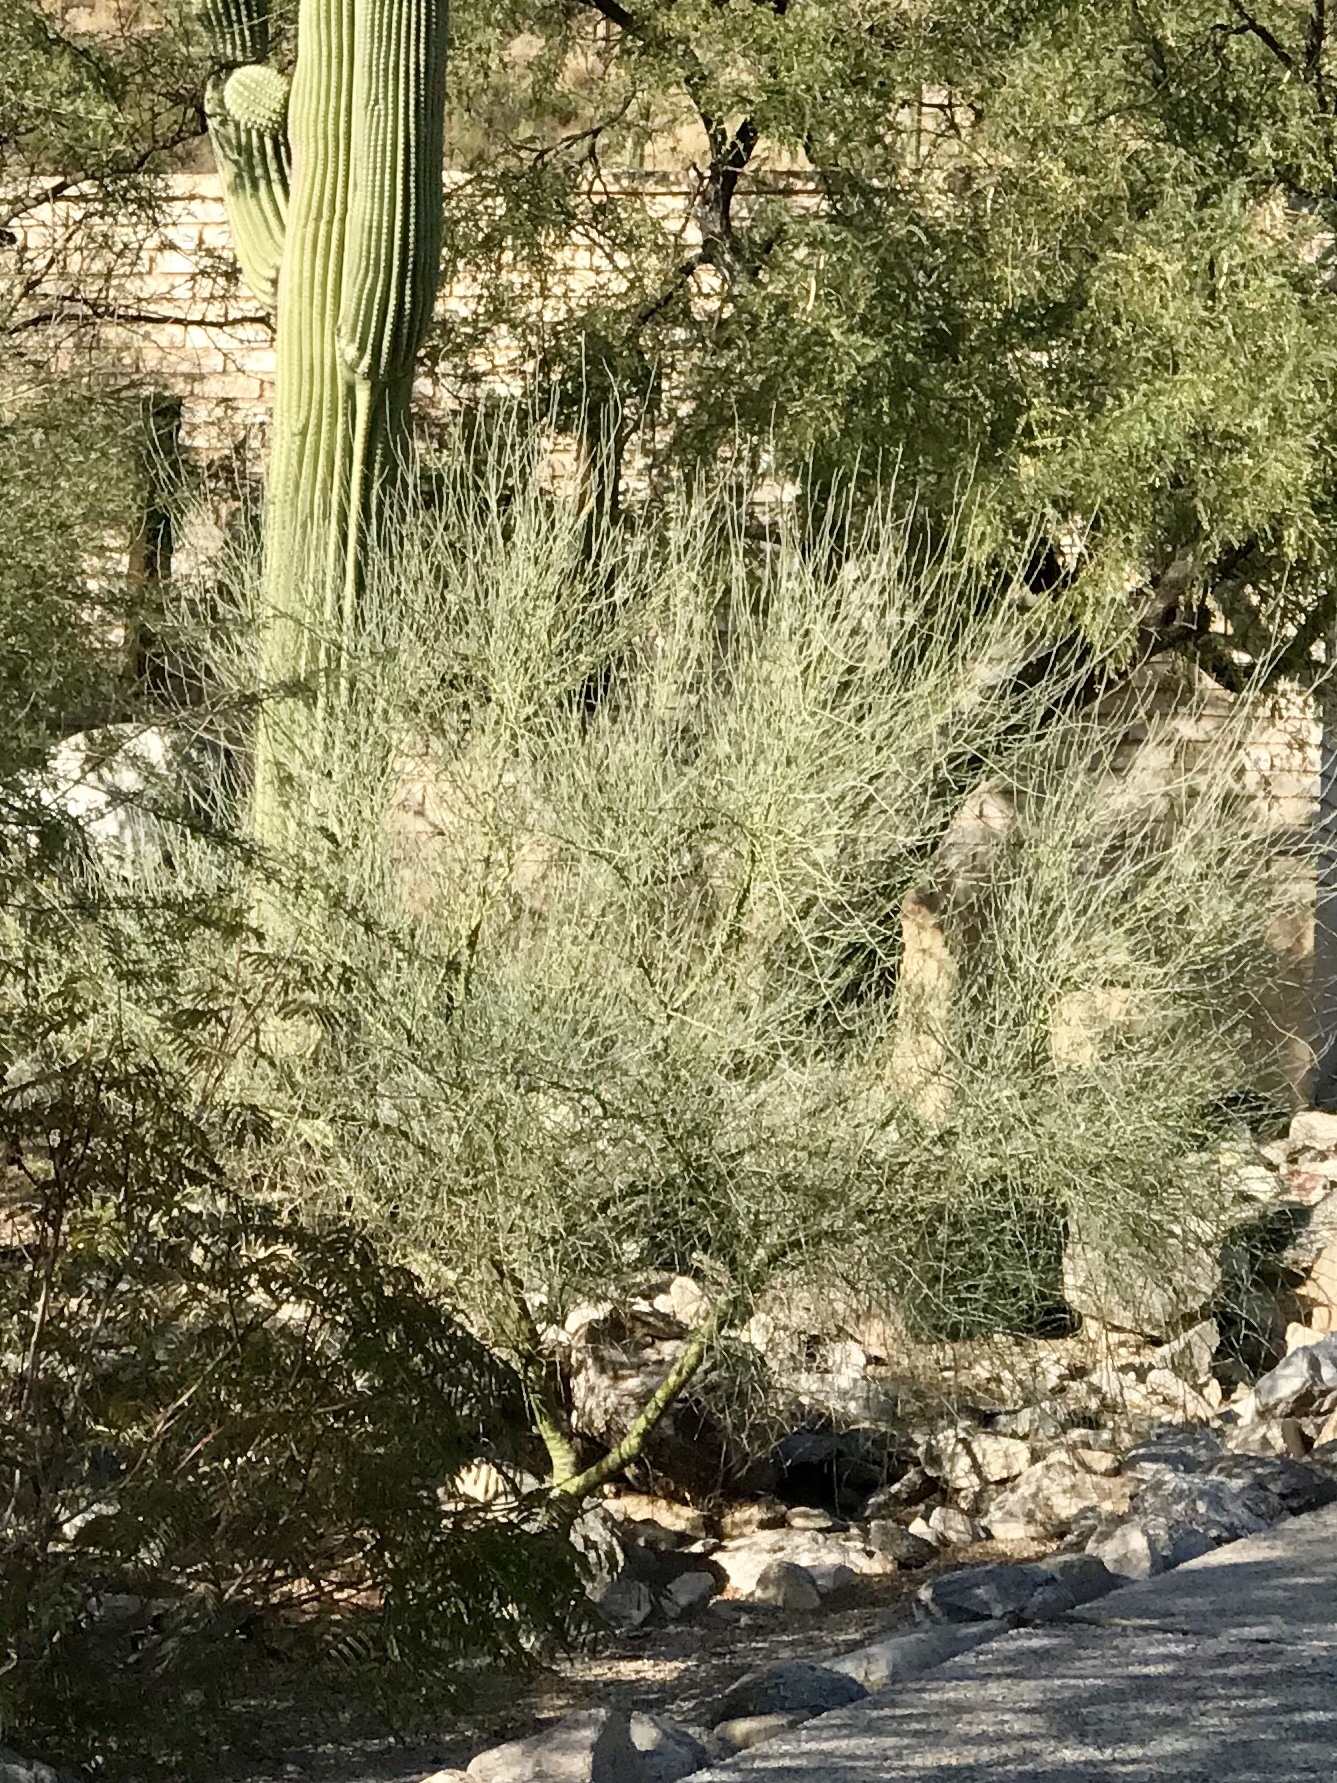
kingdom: Plantae
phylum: Tracheophyta
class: Magnoliopsida
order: Fabales
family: Fabaceae
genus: Parkinsonia
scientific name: Parkinsonia florida
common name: Blue paloverde
